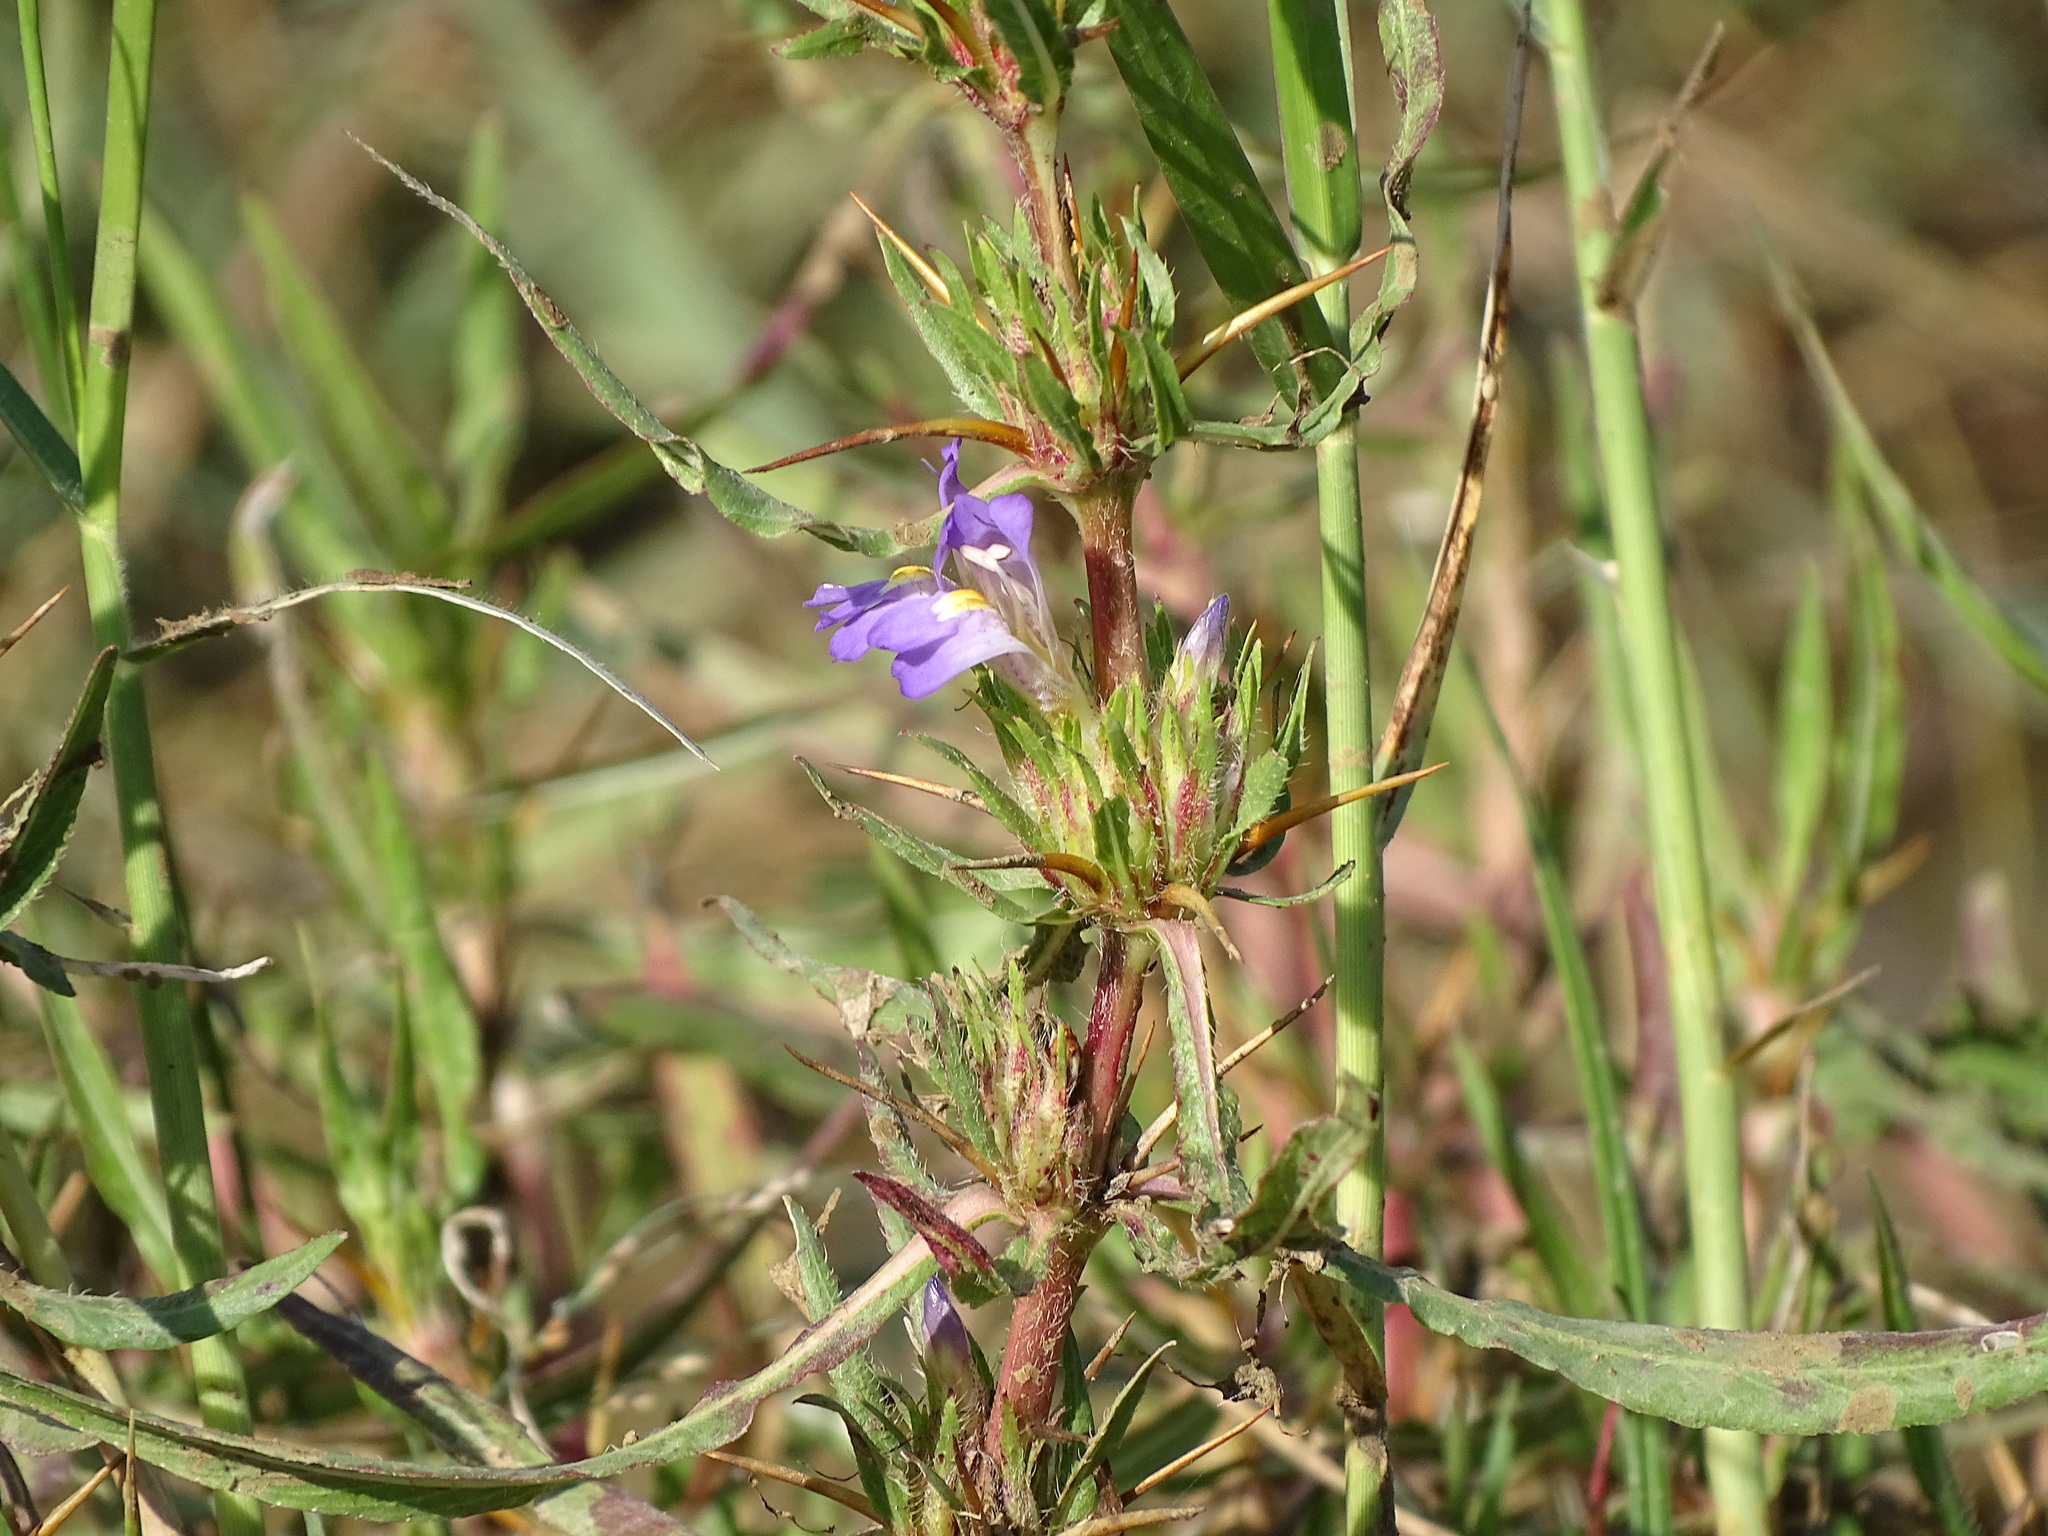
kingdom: Plantae
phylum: Tracheophyta
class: Magnoliopsida
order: Lamiales
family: Acanthaceae
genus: Hygrophila
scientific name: Hygrophila auriculata
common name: Hygrophila
